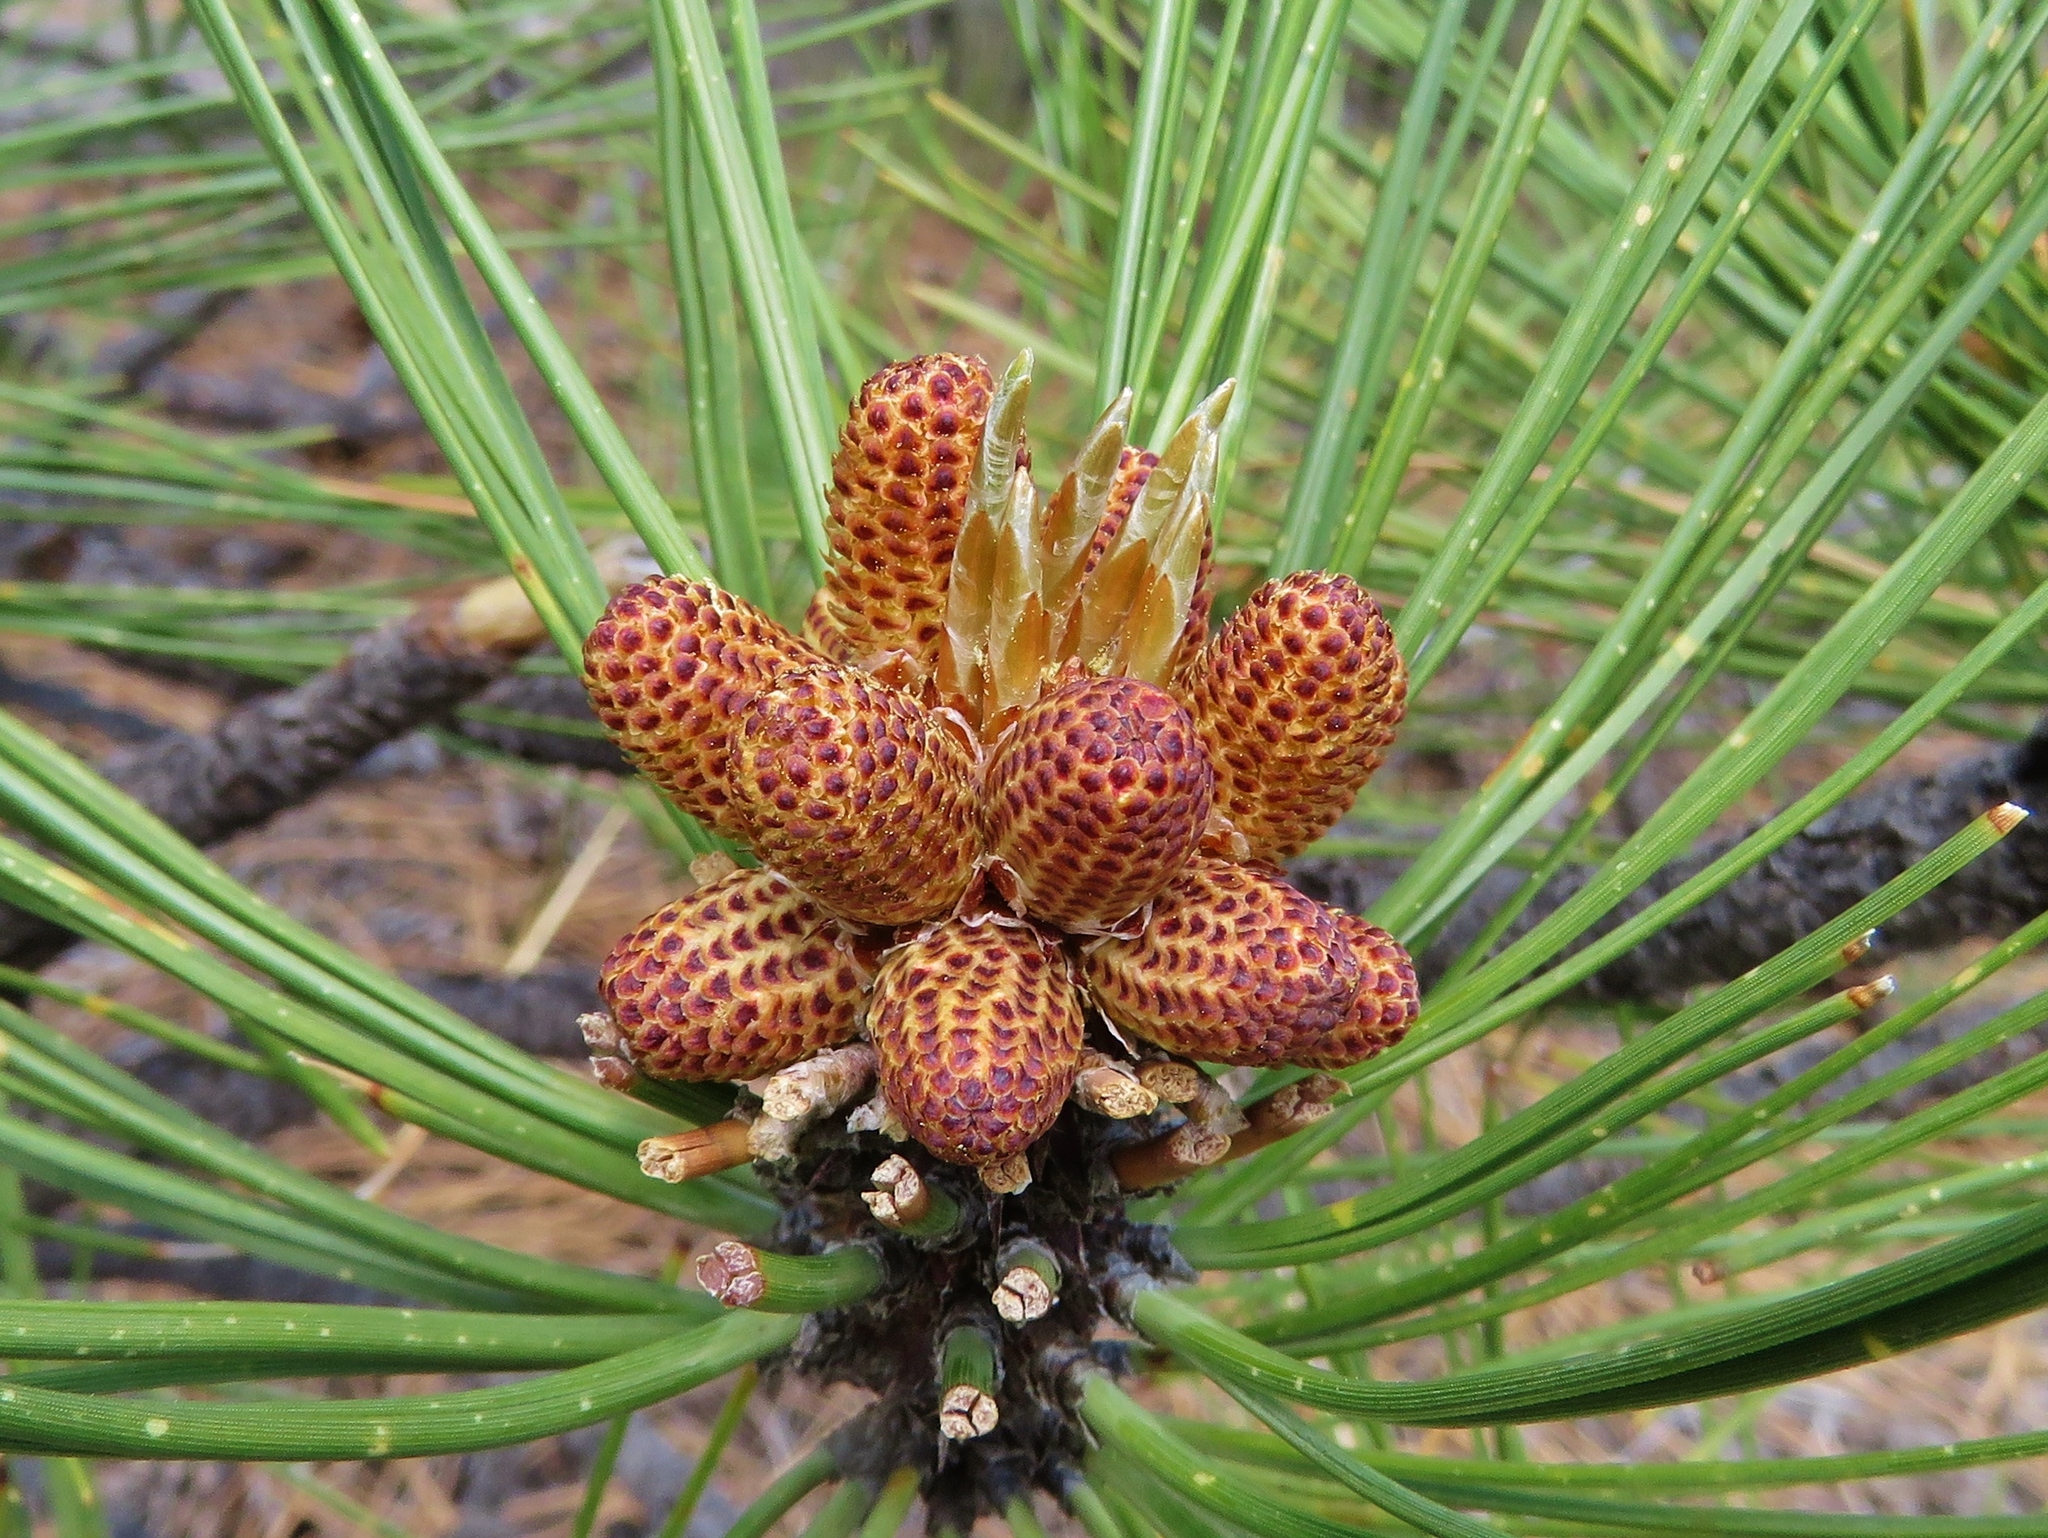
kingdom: Plantae
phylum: Tracheophyta
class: Pinopsida
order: Pinales
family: Pinaceae
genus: Pinus
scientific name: Pinus ponderosa
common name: Western yellow-pine
